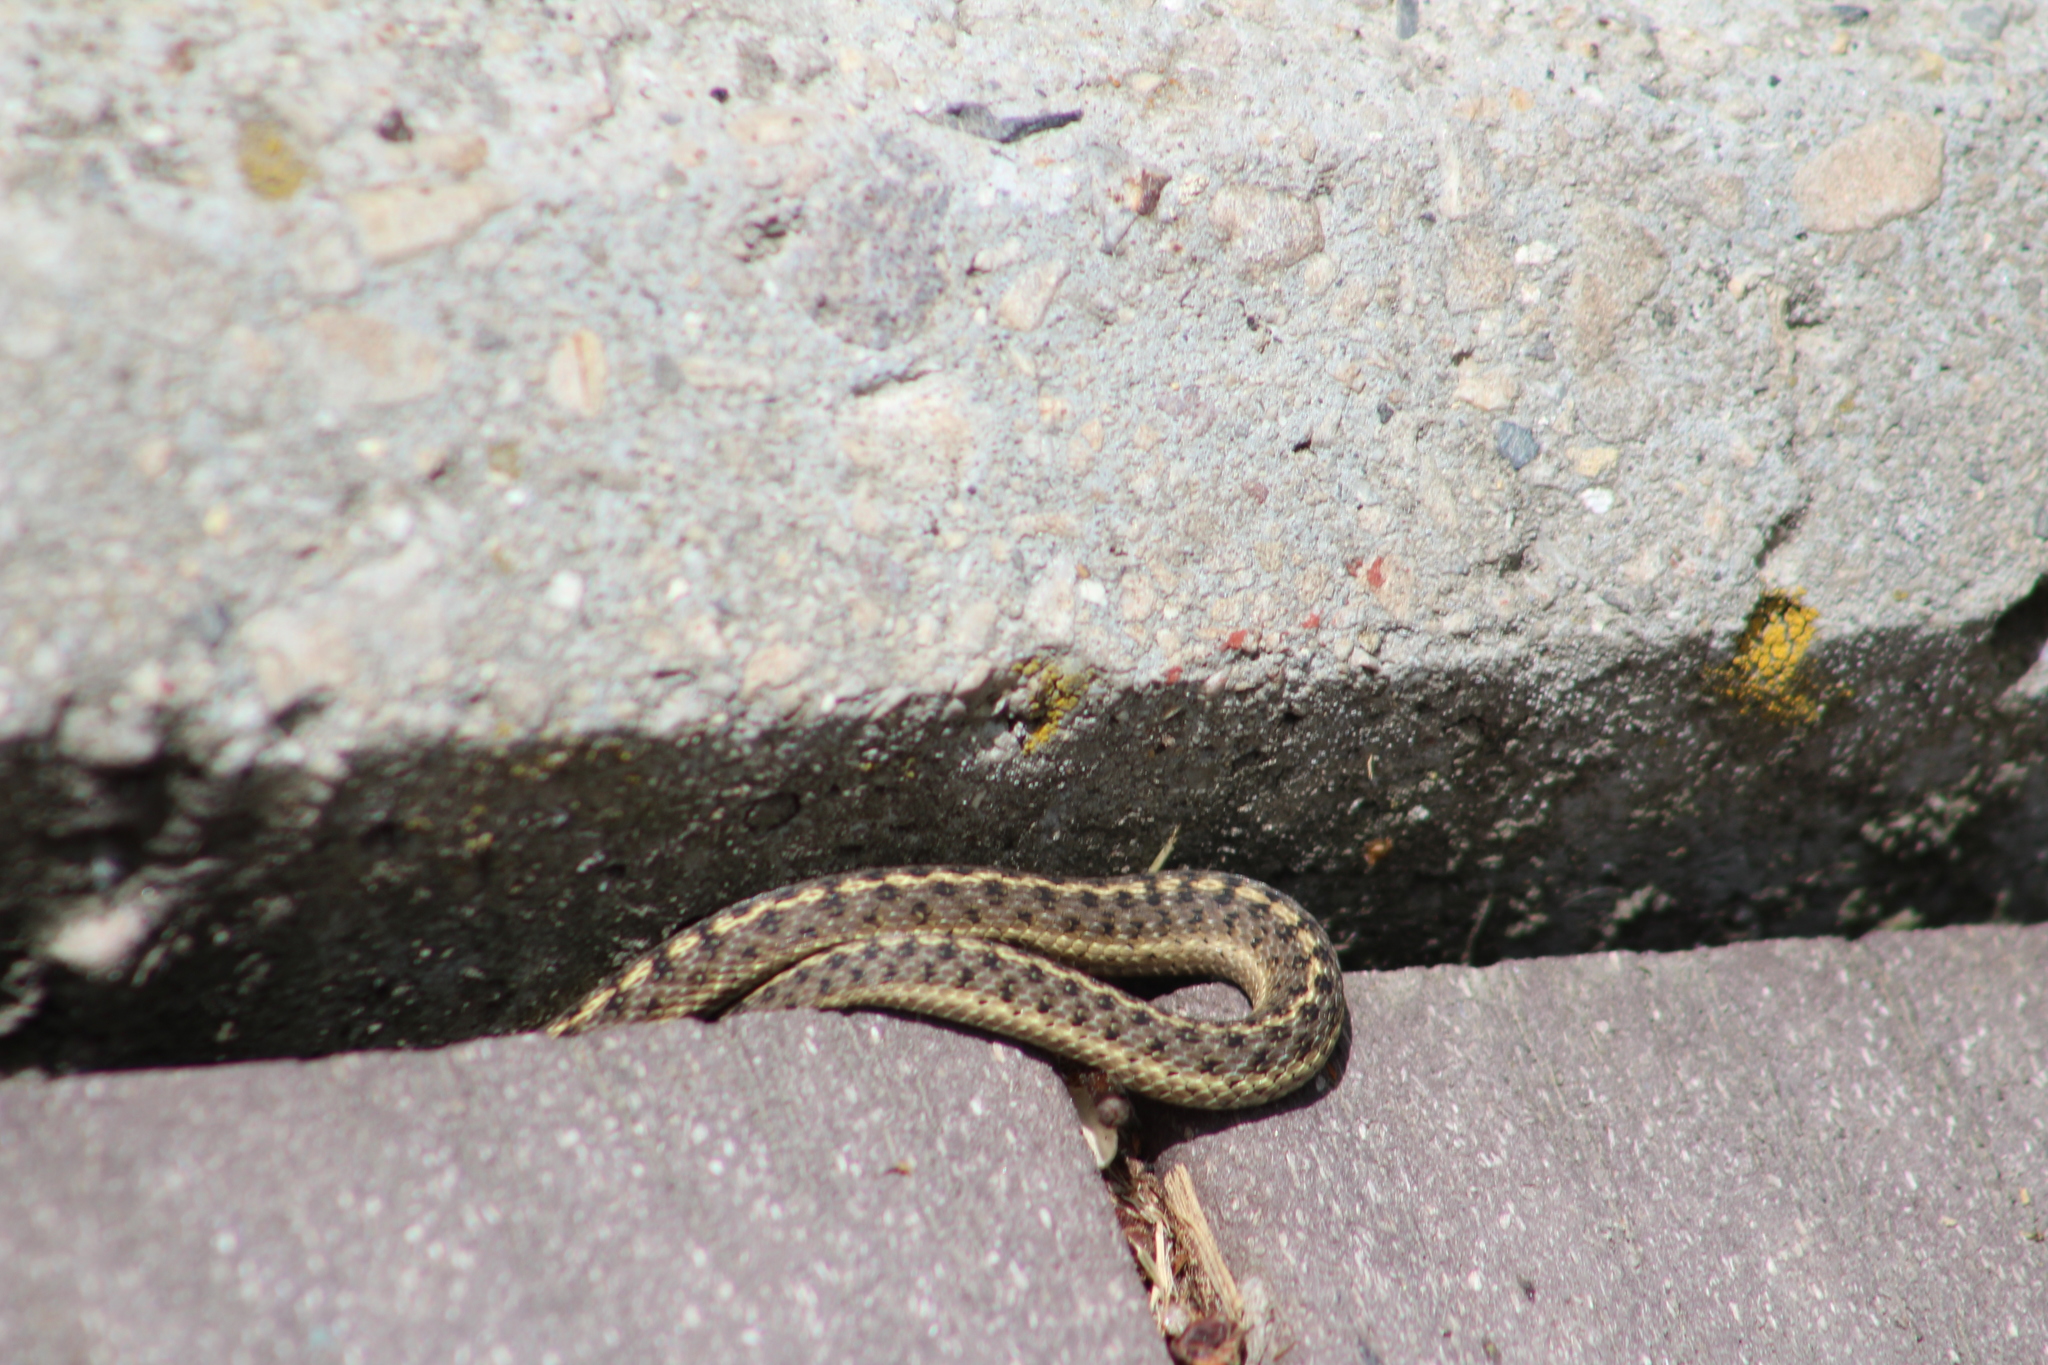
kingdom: Animalia
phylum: Chordata
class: Squamata
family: Colubridae
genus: Thamnophis
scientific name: Thamnophis elegans
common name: Western terrestrial garter snake
